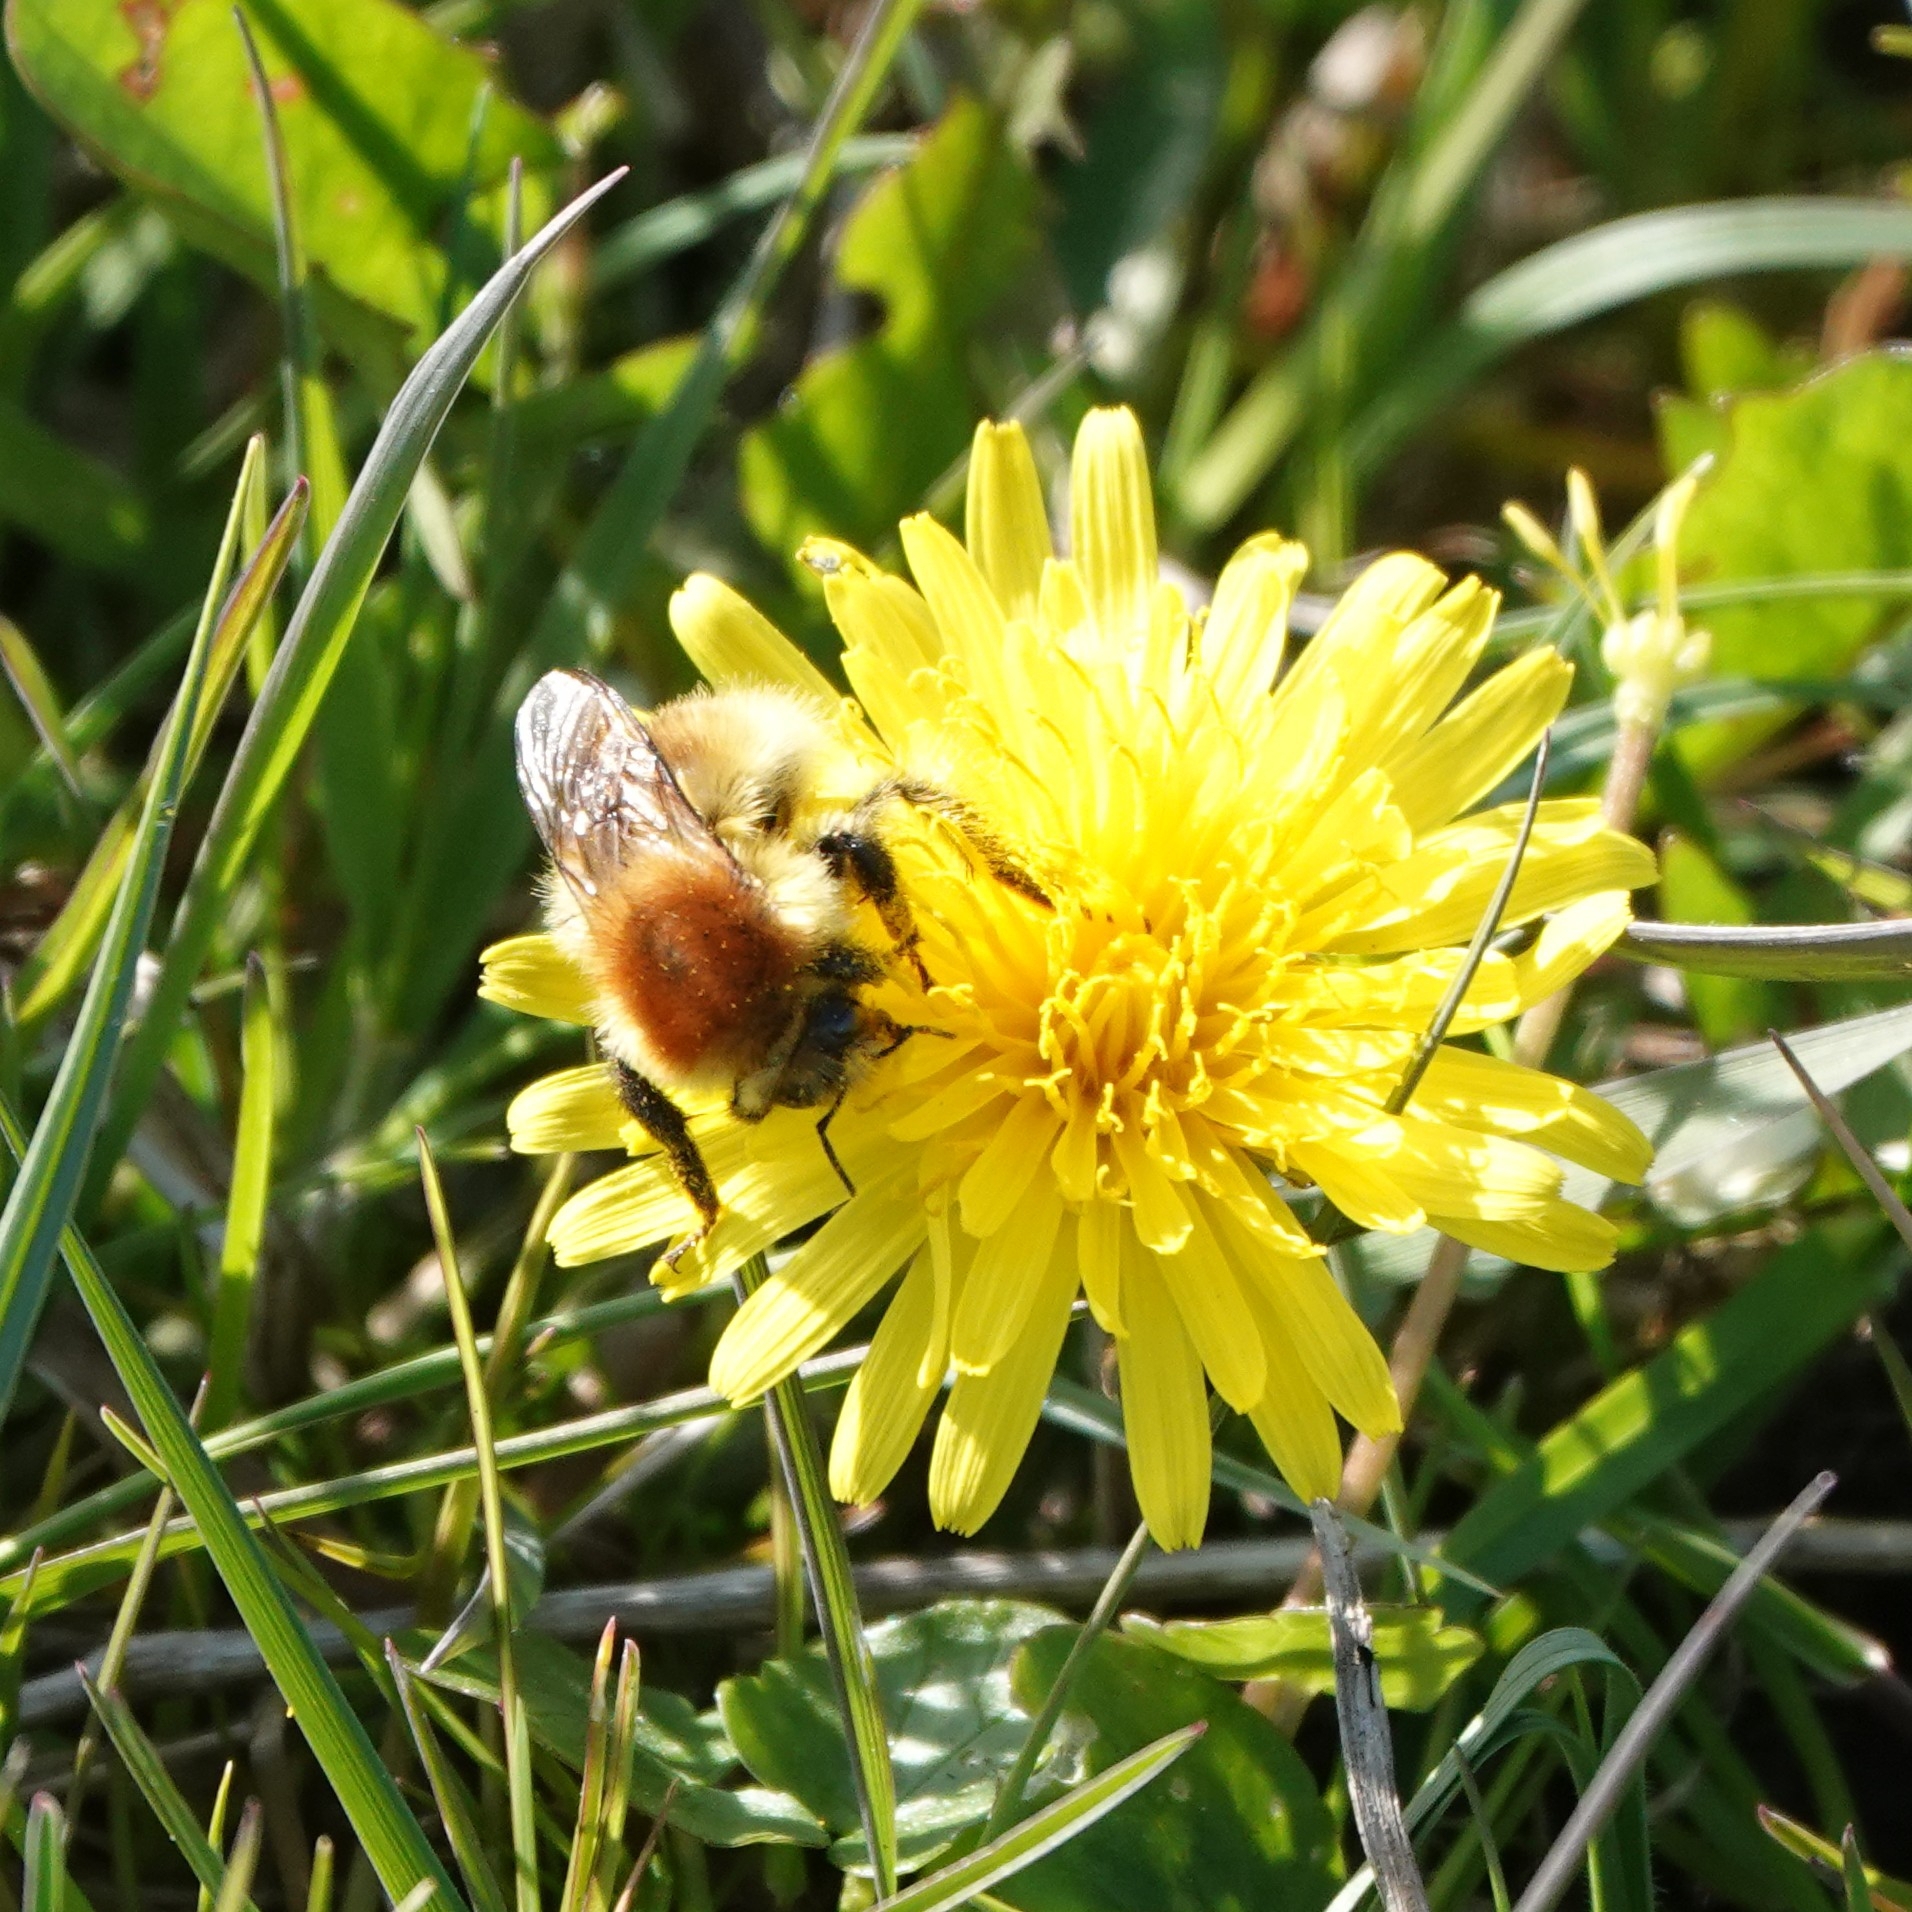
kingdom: Animalia
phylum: Arthropoda
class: Insecta
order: Hymenoptera
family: Apidae
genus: Bombus
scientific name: Bombus muscorum
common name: Moss carder-bee
